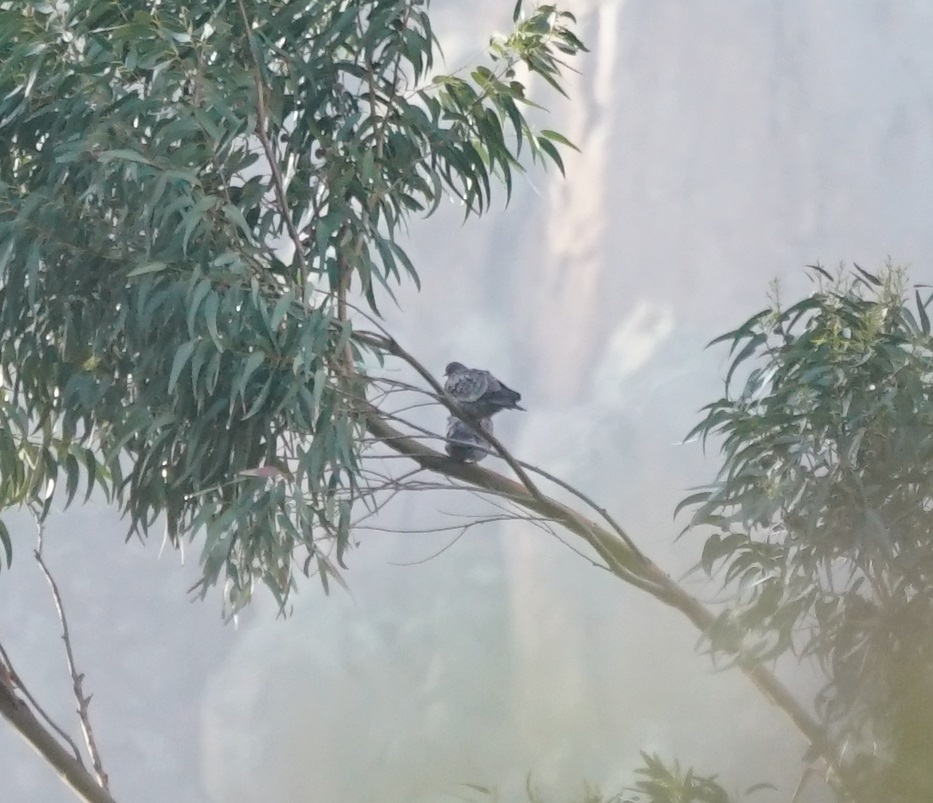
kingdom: Animalia
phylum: Chordata
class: Aves
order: Columbiformes
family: Columbidae
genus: Patagioenas
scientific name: Patagioenas maculosa
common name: Spot-winged pigeon
